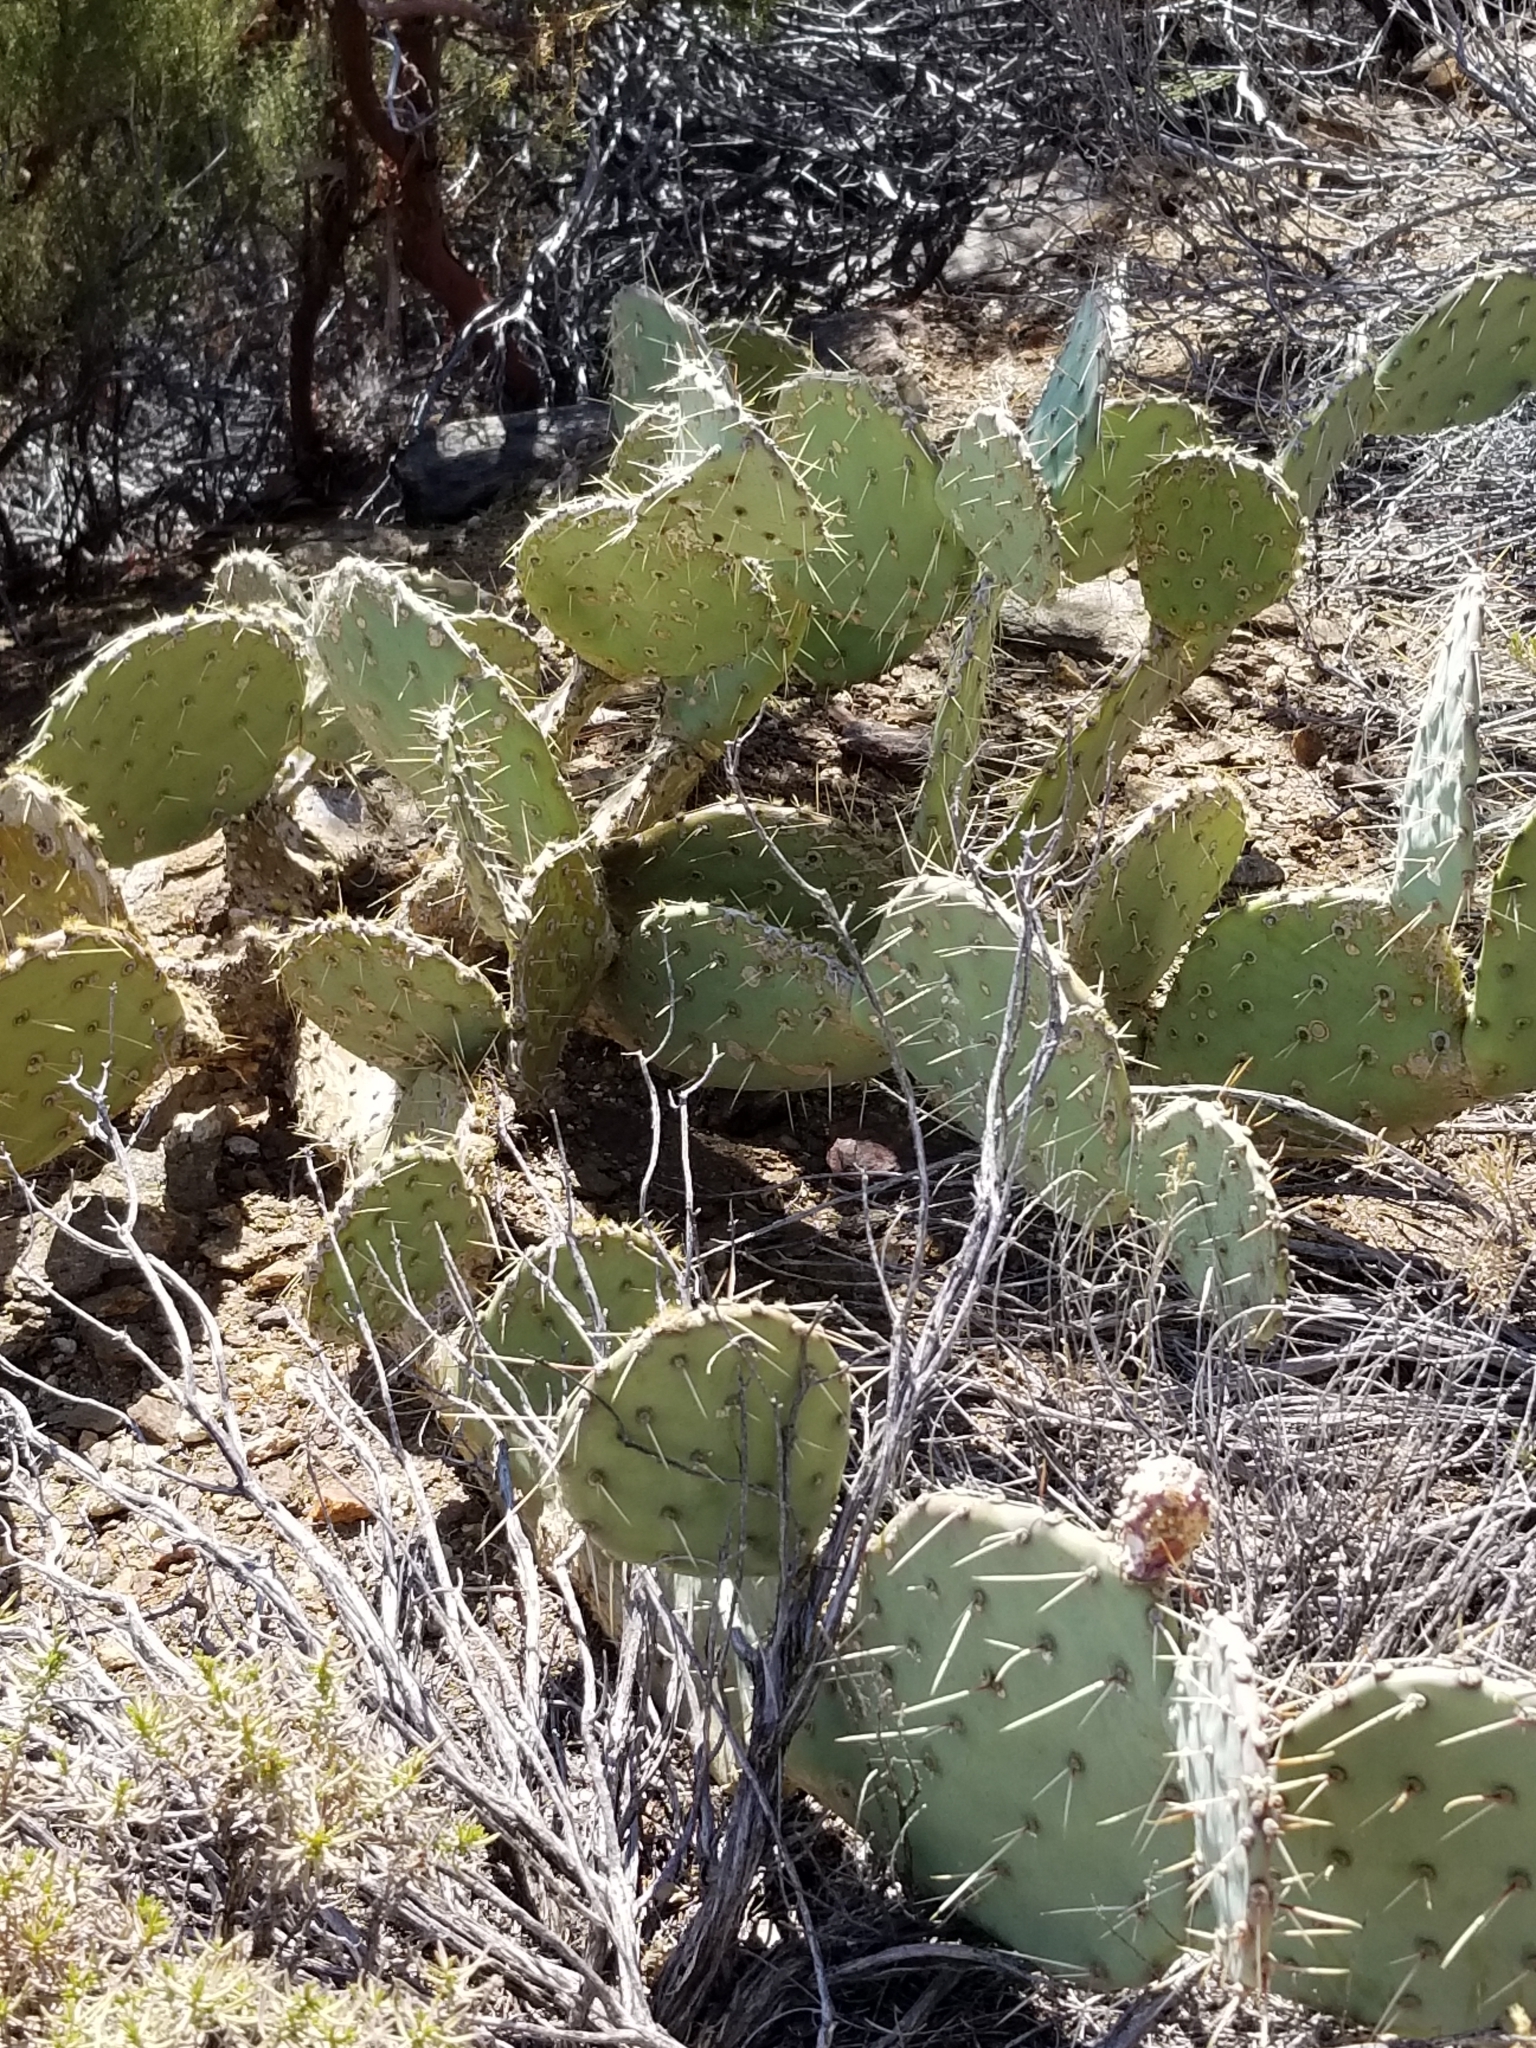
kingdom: Plantae
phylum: Tracheophyta
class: Magnoliopsida
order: Caryophyllales
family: Cactaceae
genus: Opuntia
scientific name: Opuntia phaeacantha
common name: New mexico prickly-pear
